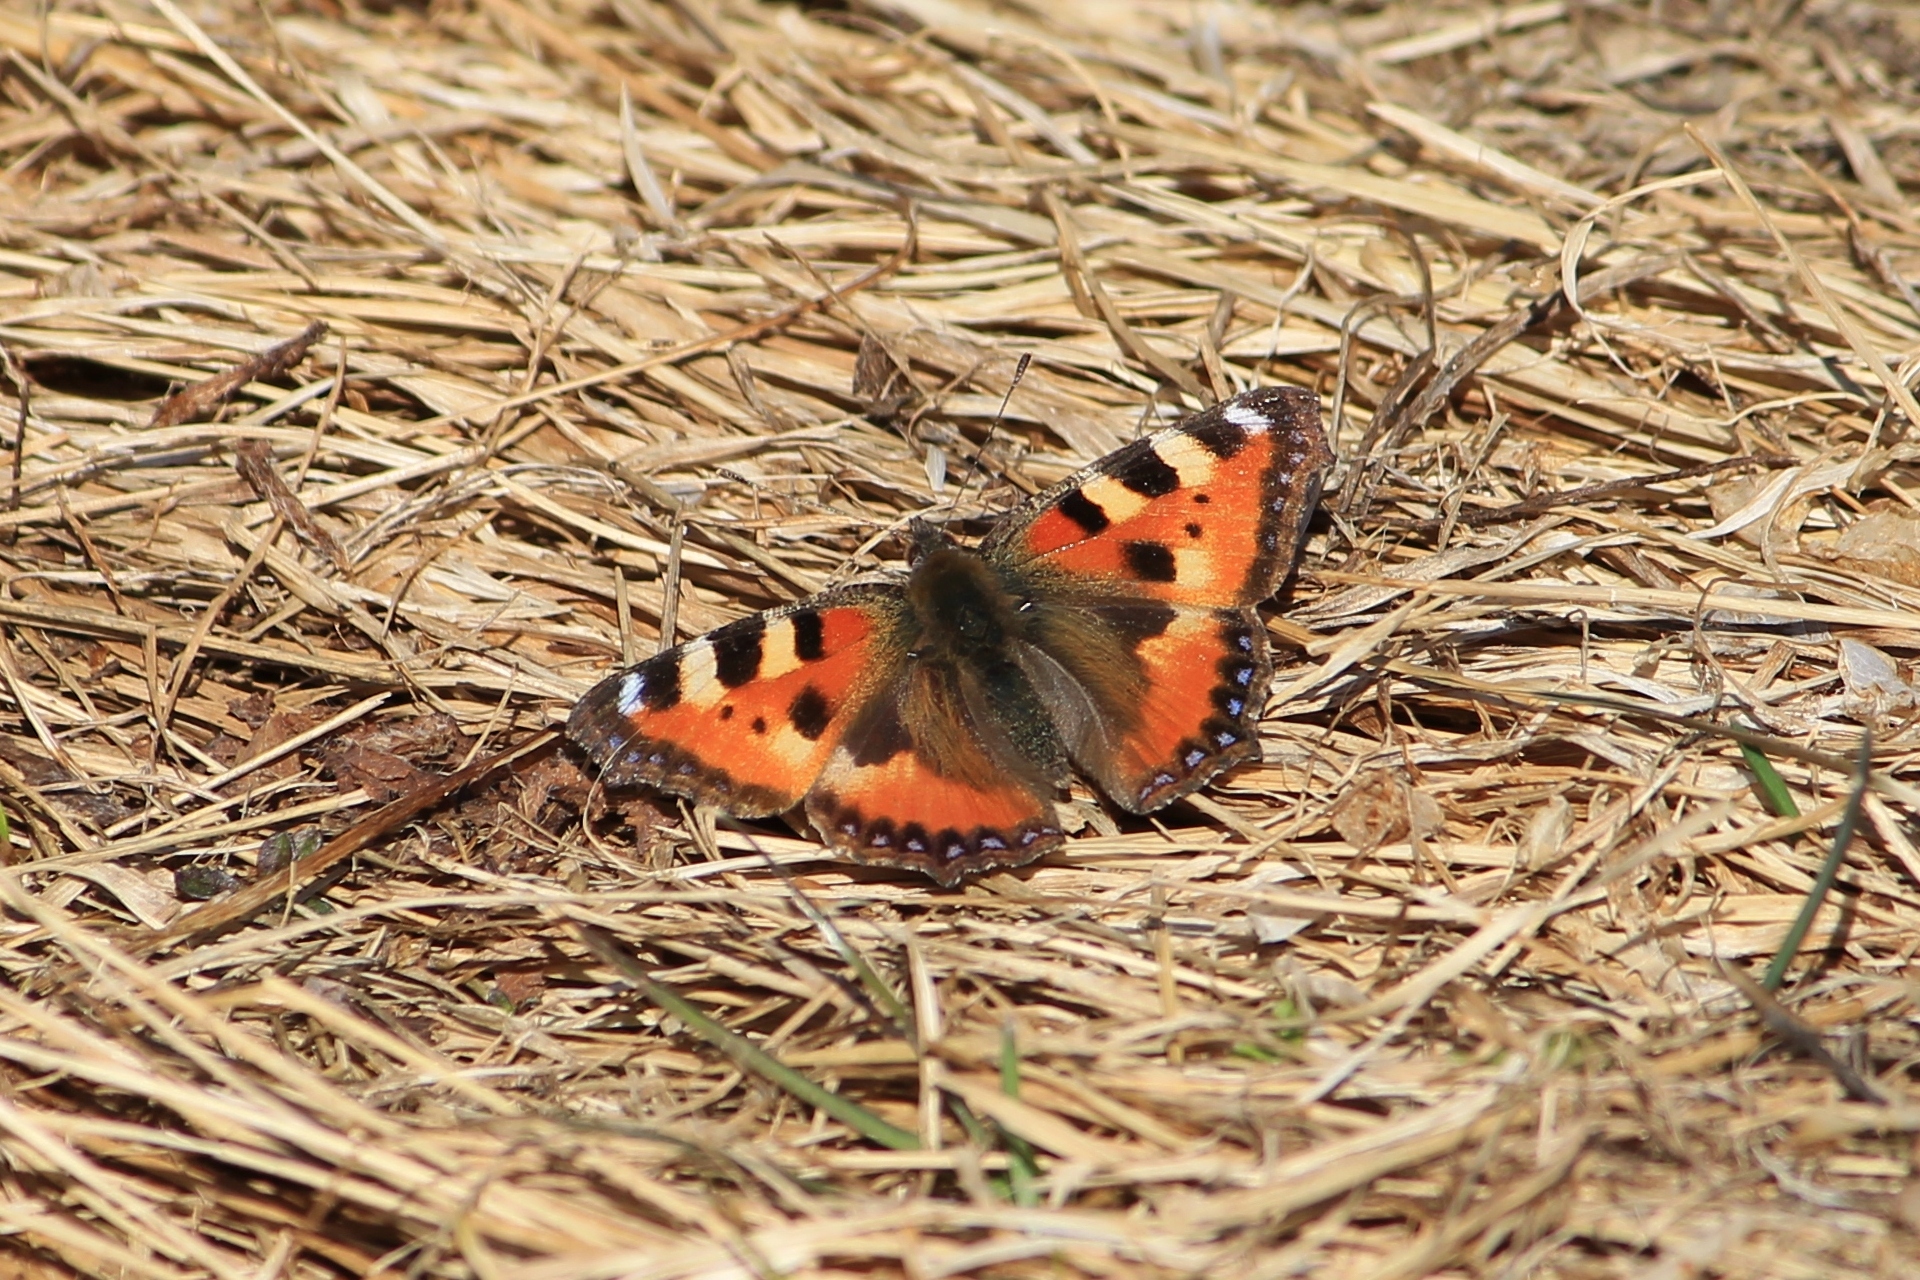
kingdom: Animalia
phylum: Arthropoda
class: Insecta
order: Lepidoptera
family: Nymphalidae
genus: Aglais
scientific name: Aglais urticae
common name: Small tortoiseshell
